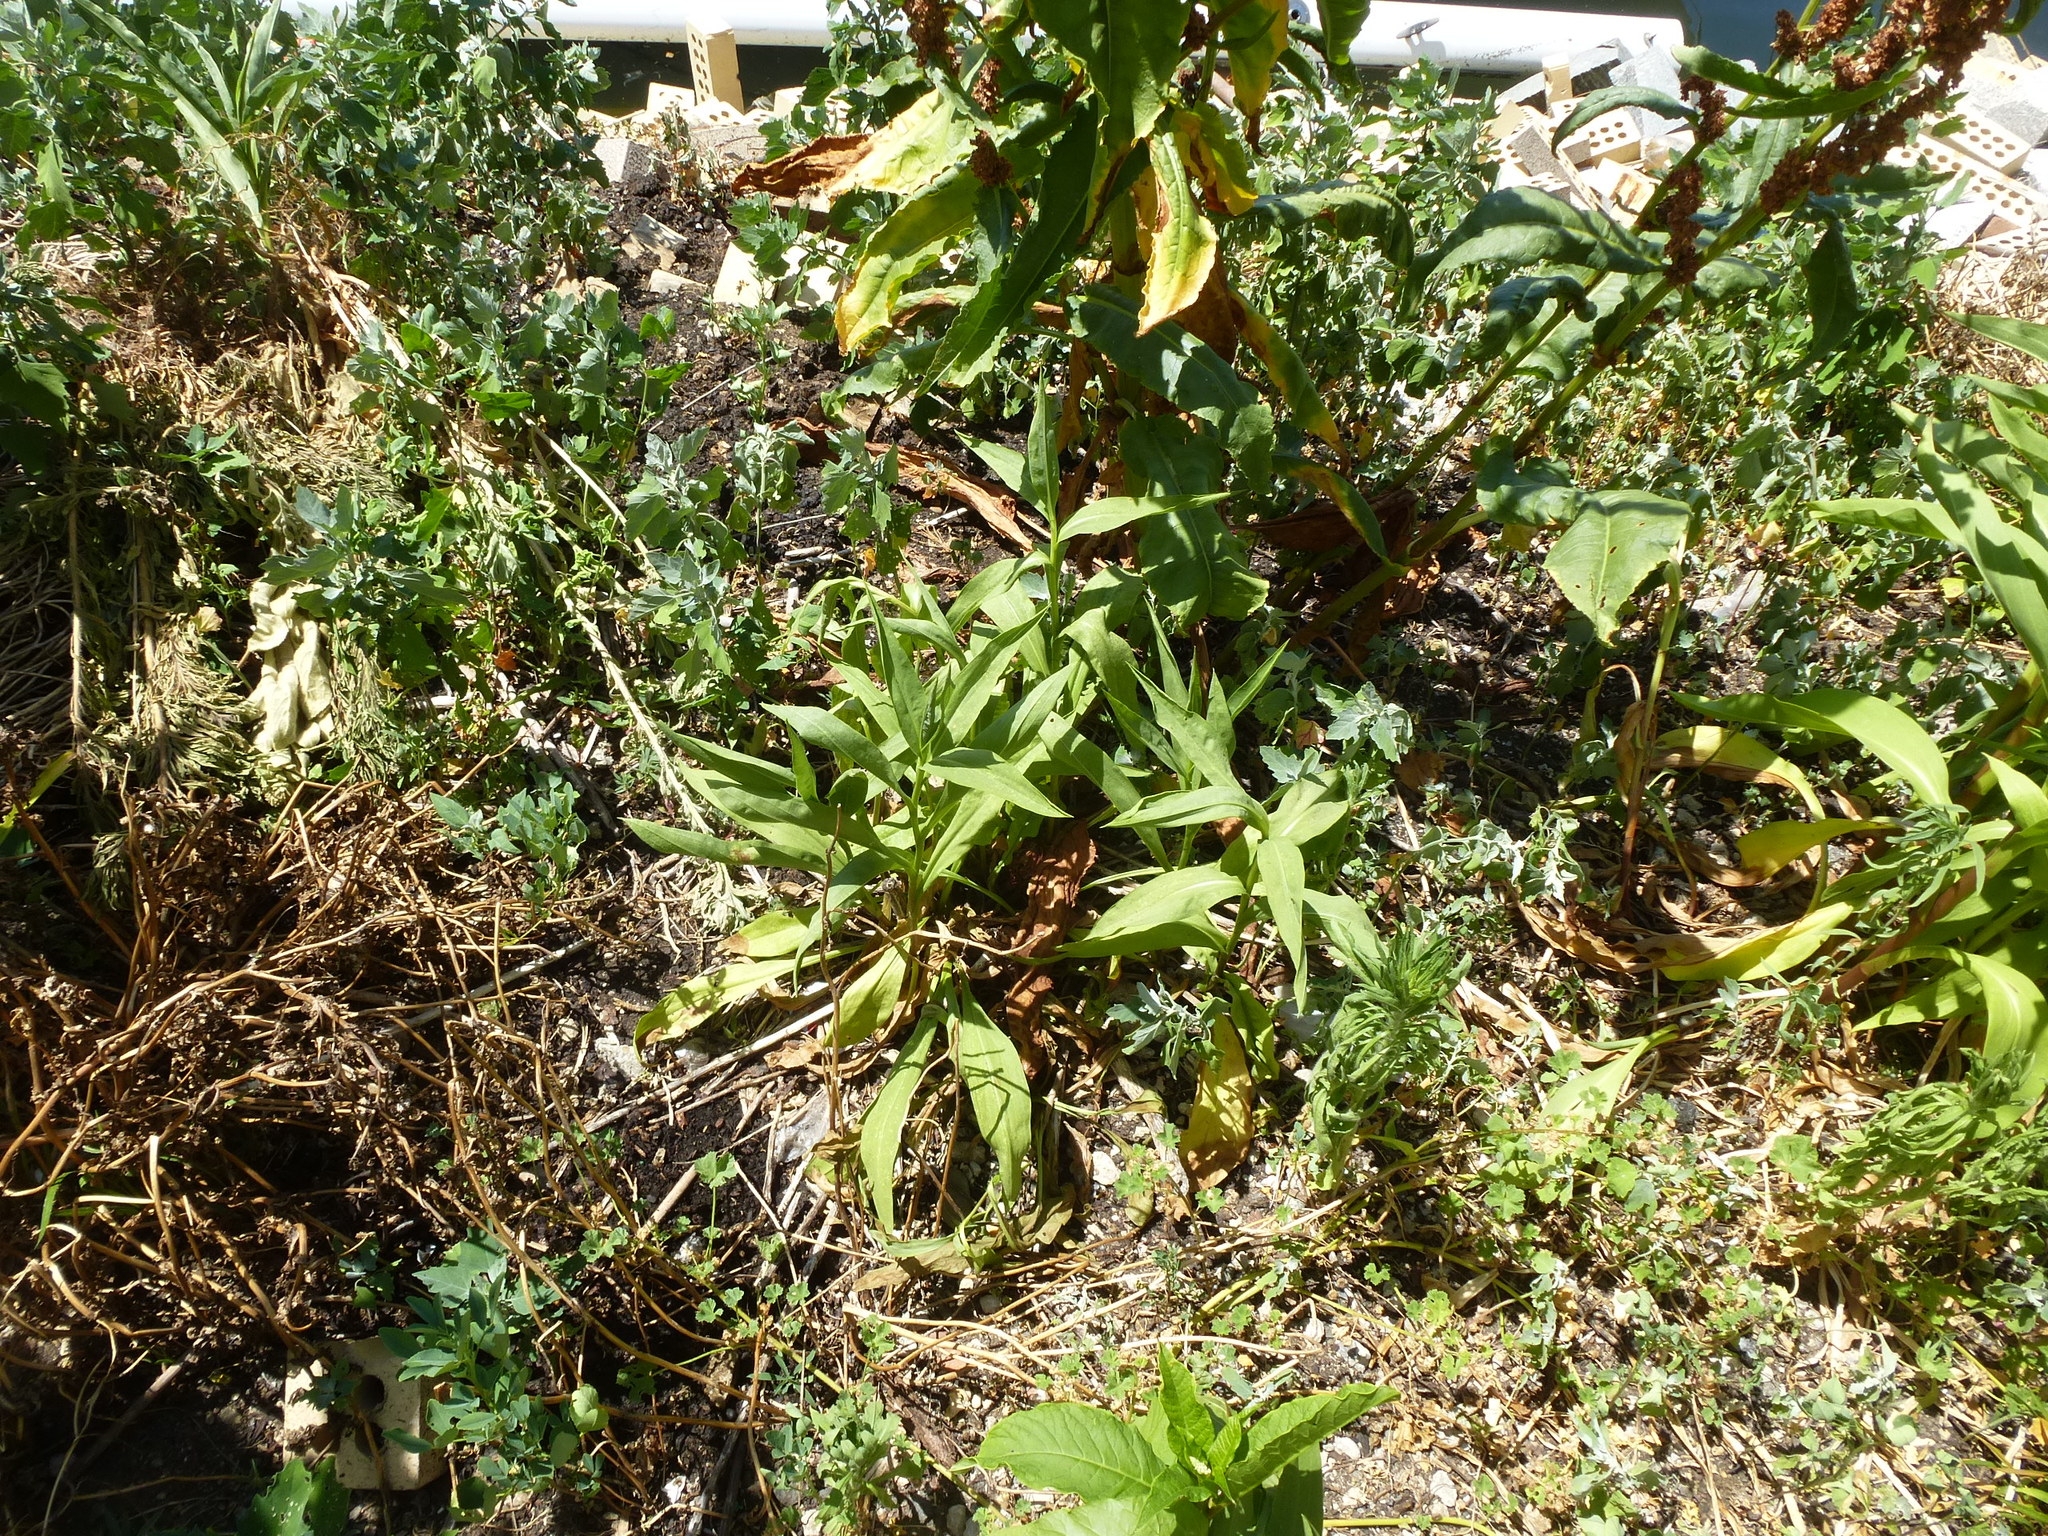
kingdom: Plantae
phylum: Tracheophyta
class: Magnoliopsida
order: Asterales
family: Asteraceae
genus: Solidago
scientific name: Solidago sempervirens
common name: Salt-marsh goldenrod
